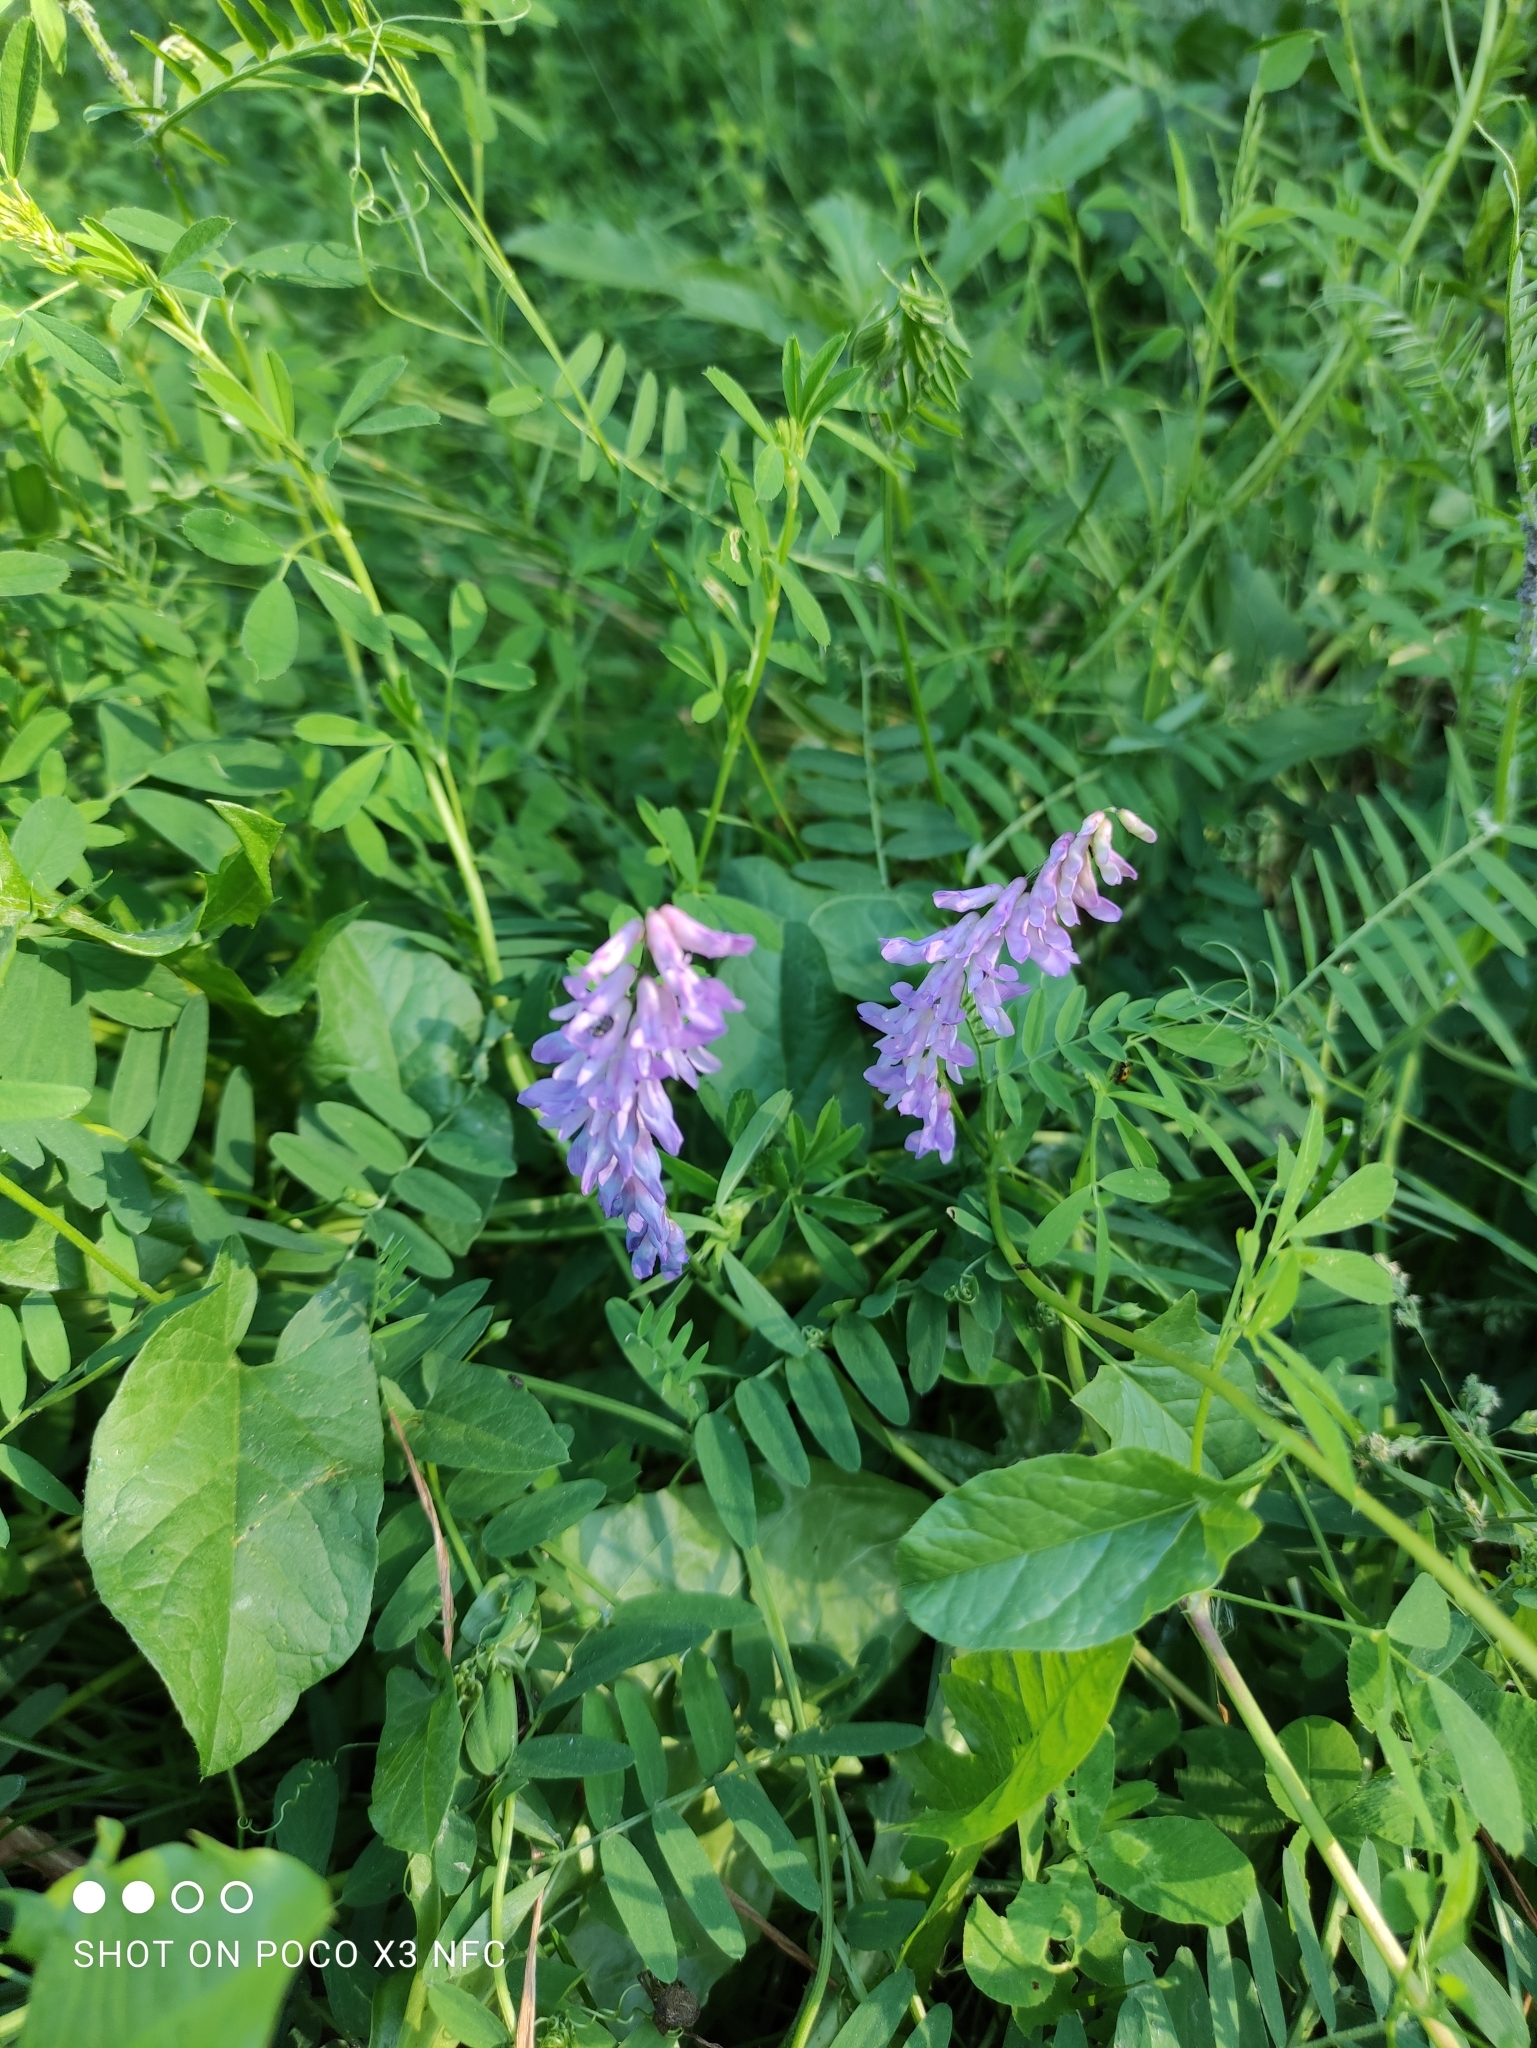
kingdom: Plantae
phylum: Tracheophyta
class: Magnoliopsida
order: Fabales
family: Fabaceae
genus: Vicia
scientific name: Vicia cracca
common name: Bird vetch
